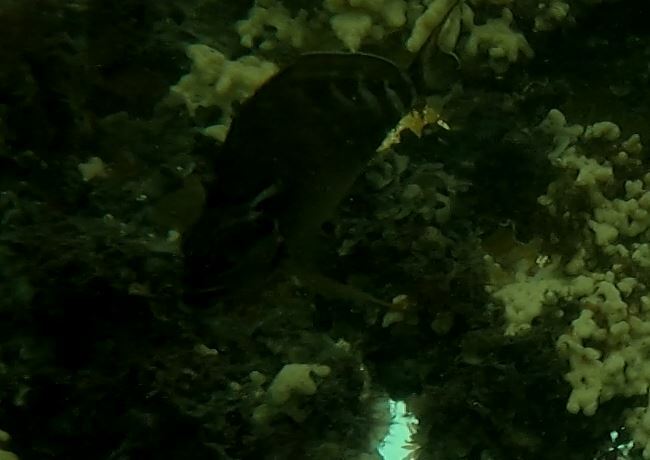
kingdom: Animalia
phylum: Chordata
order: Perciformes
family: Latridae
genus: Morwong
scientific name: Morwong fuscus
